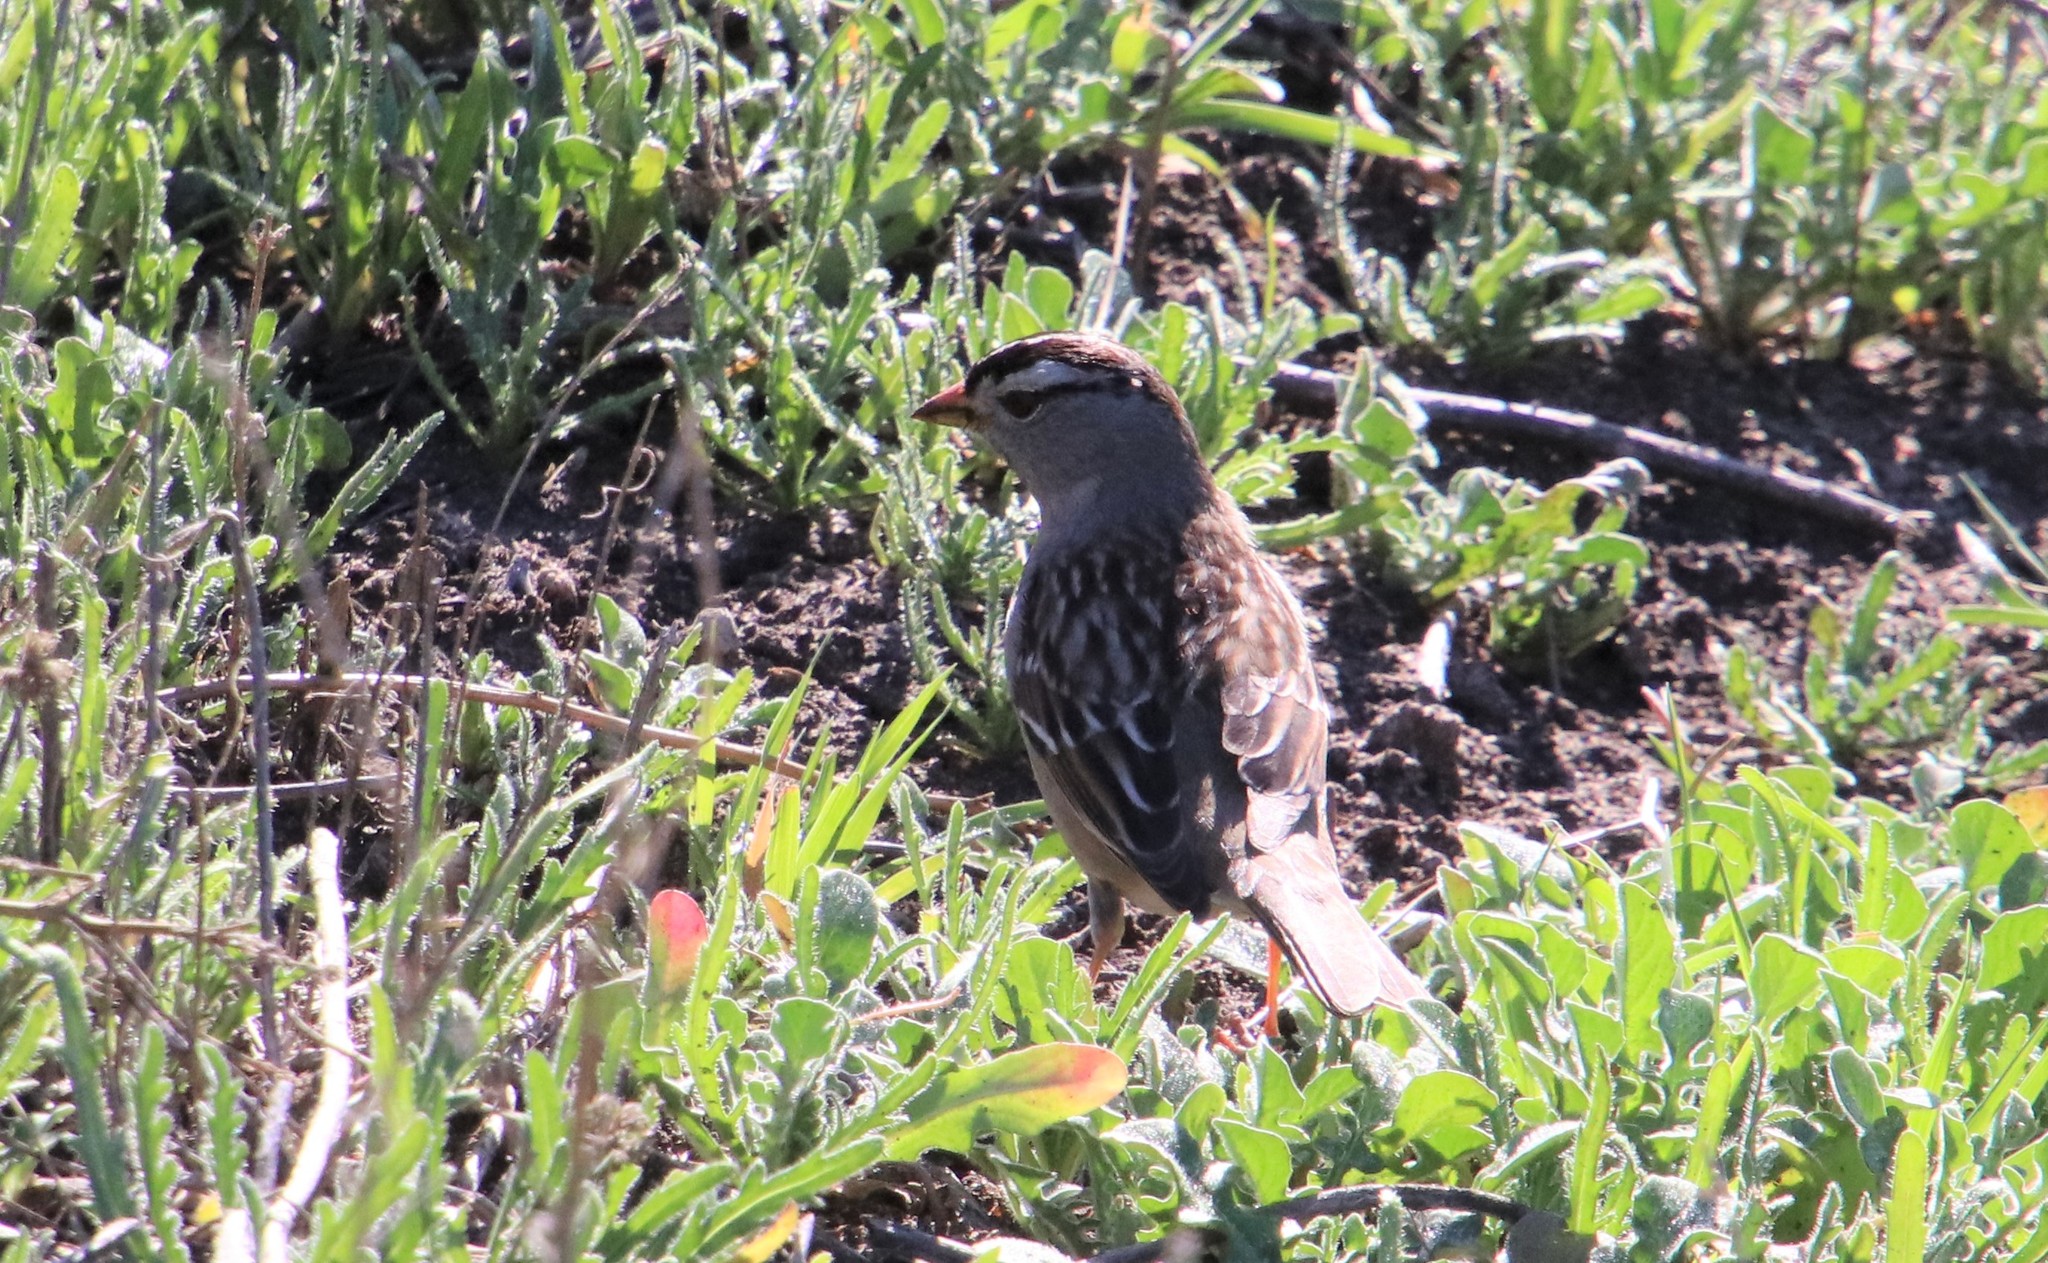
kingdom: Animalia
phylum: Chordata
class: Aves
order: Passeriformes
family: Passerellidae
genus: Zonotrichia
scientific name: Zonotrichia leucophrys
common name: White-crowned sparrow
